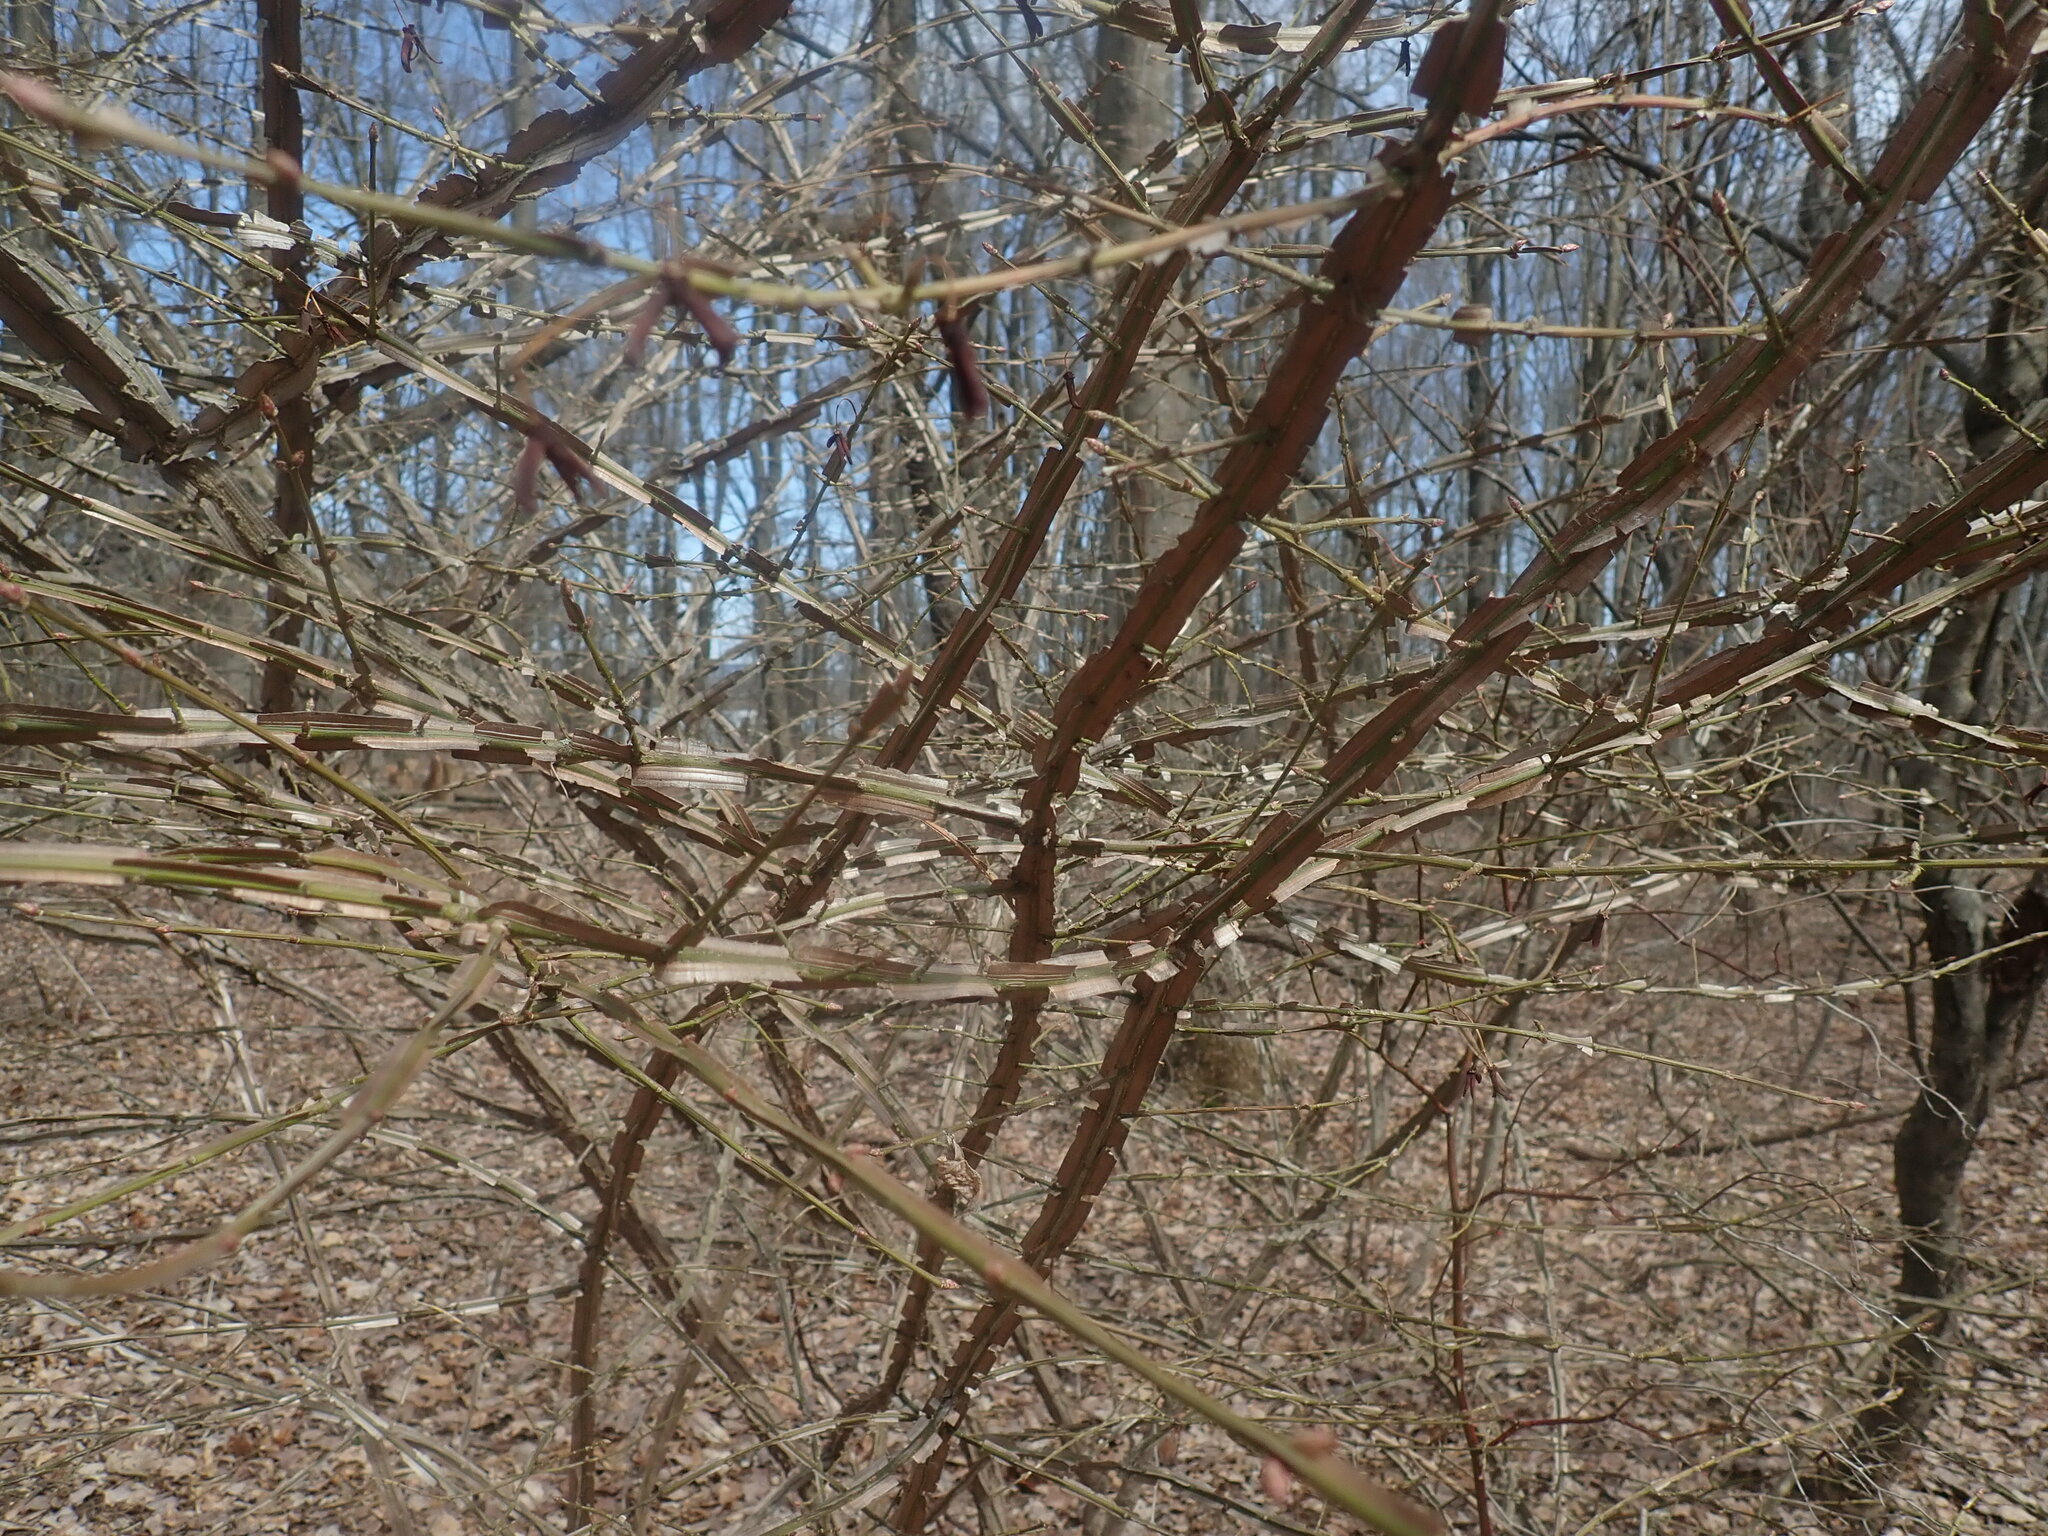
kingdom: Plantae
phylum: Tracheophyta
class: Magnoliopsida
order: Celastrales
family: Celastraceae
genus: Euonymus
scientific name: Euonymus alatus
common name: Winged euonymus
